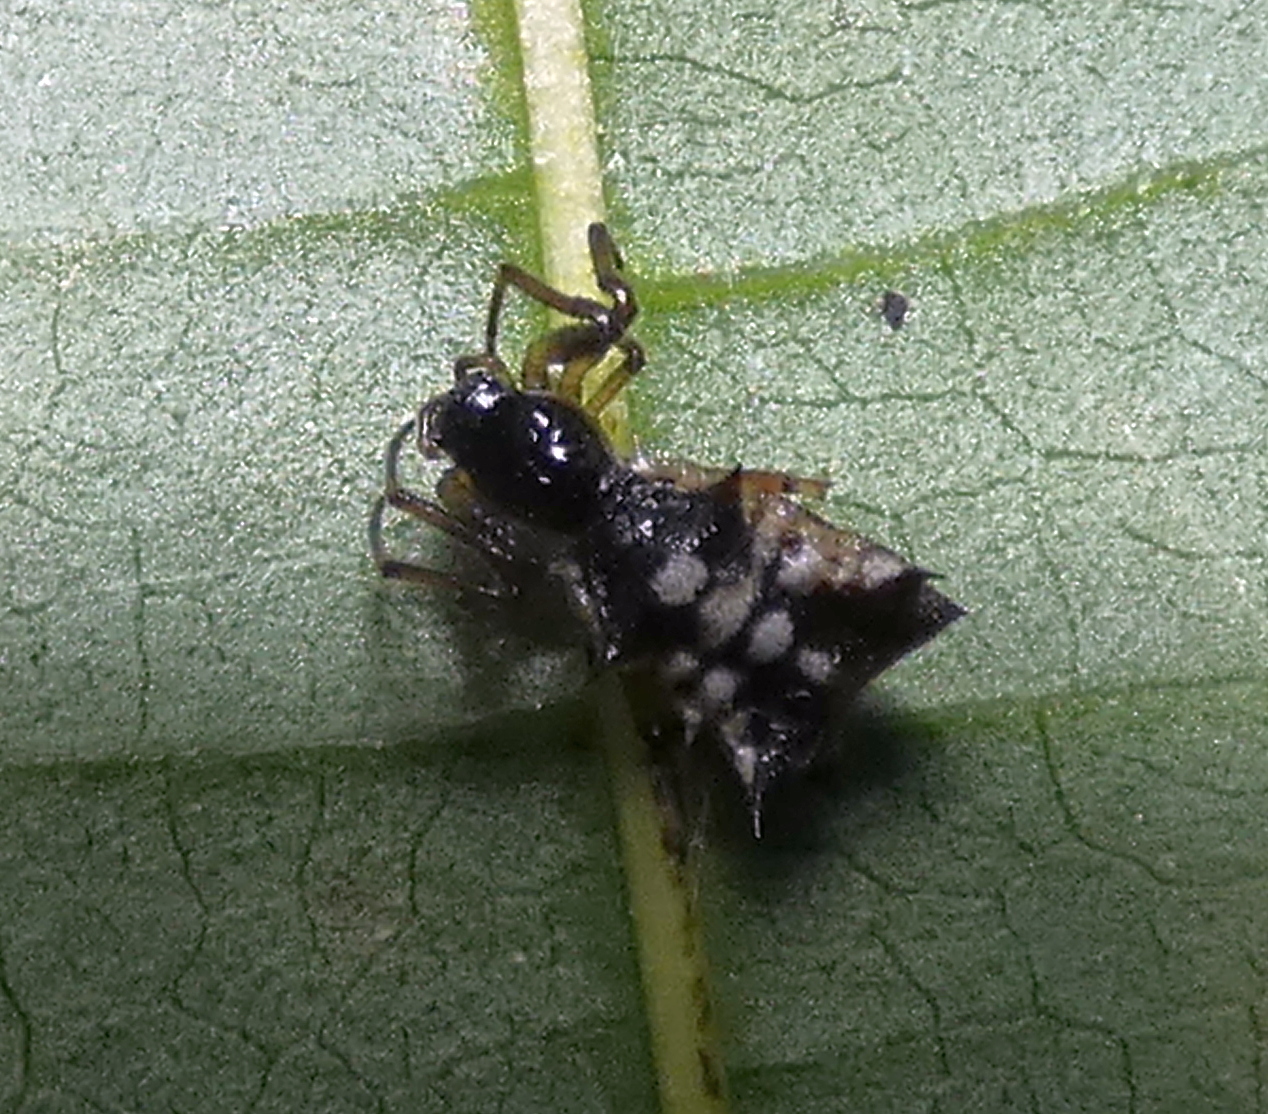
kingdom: Animalia
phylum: Arthropoda
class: Arachnida
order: Araneae
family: Araneidae
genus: Micrathena
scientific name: Micrathena picta
